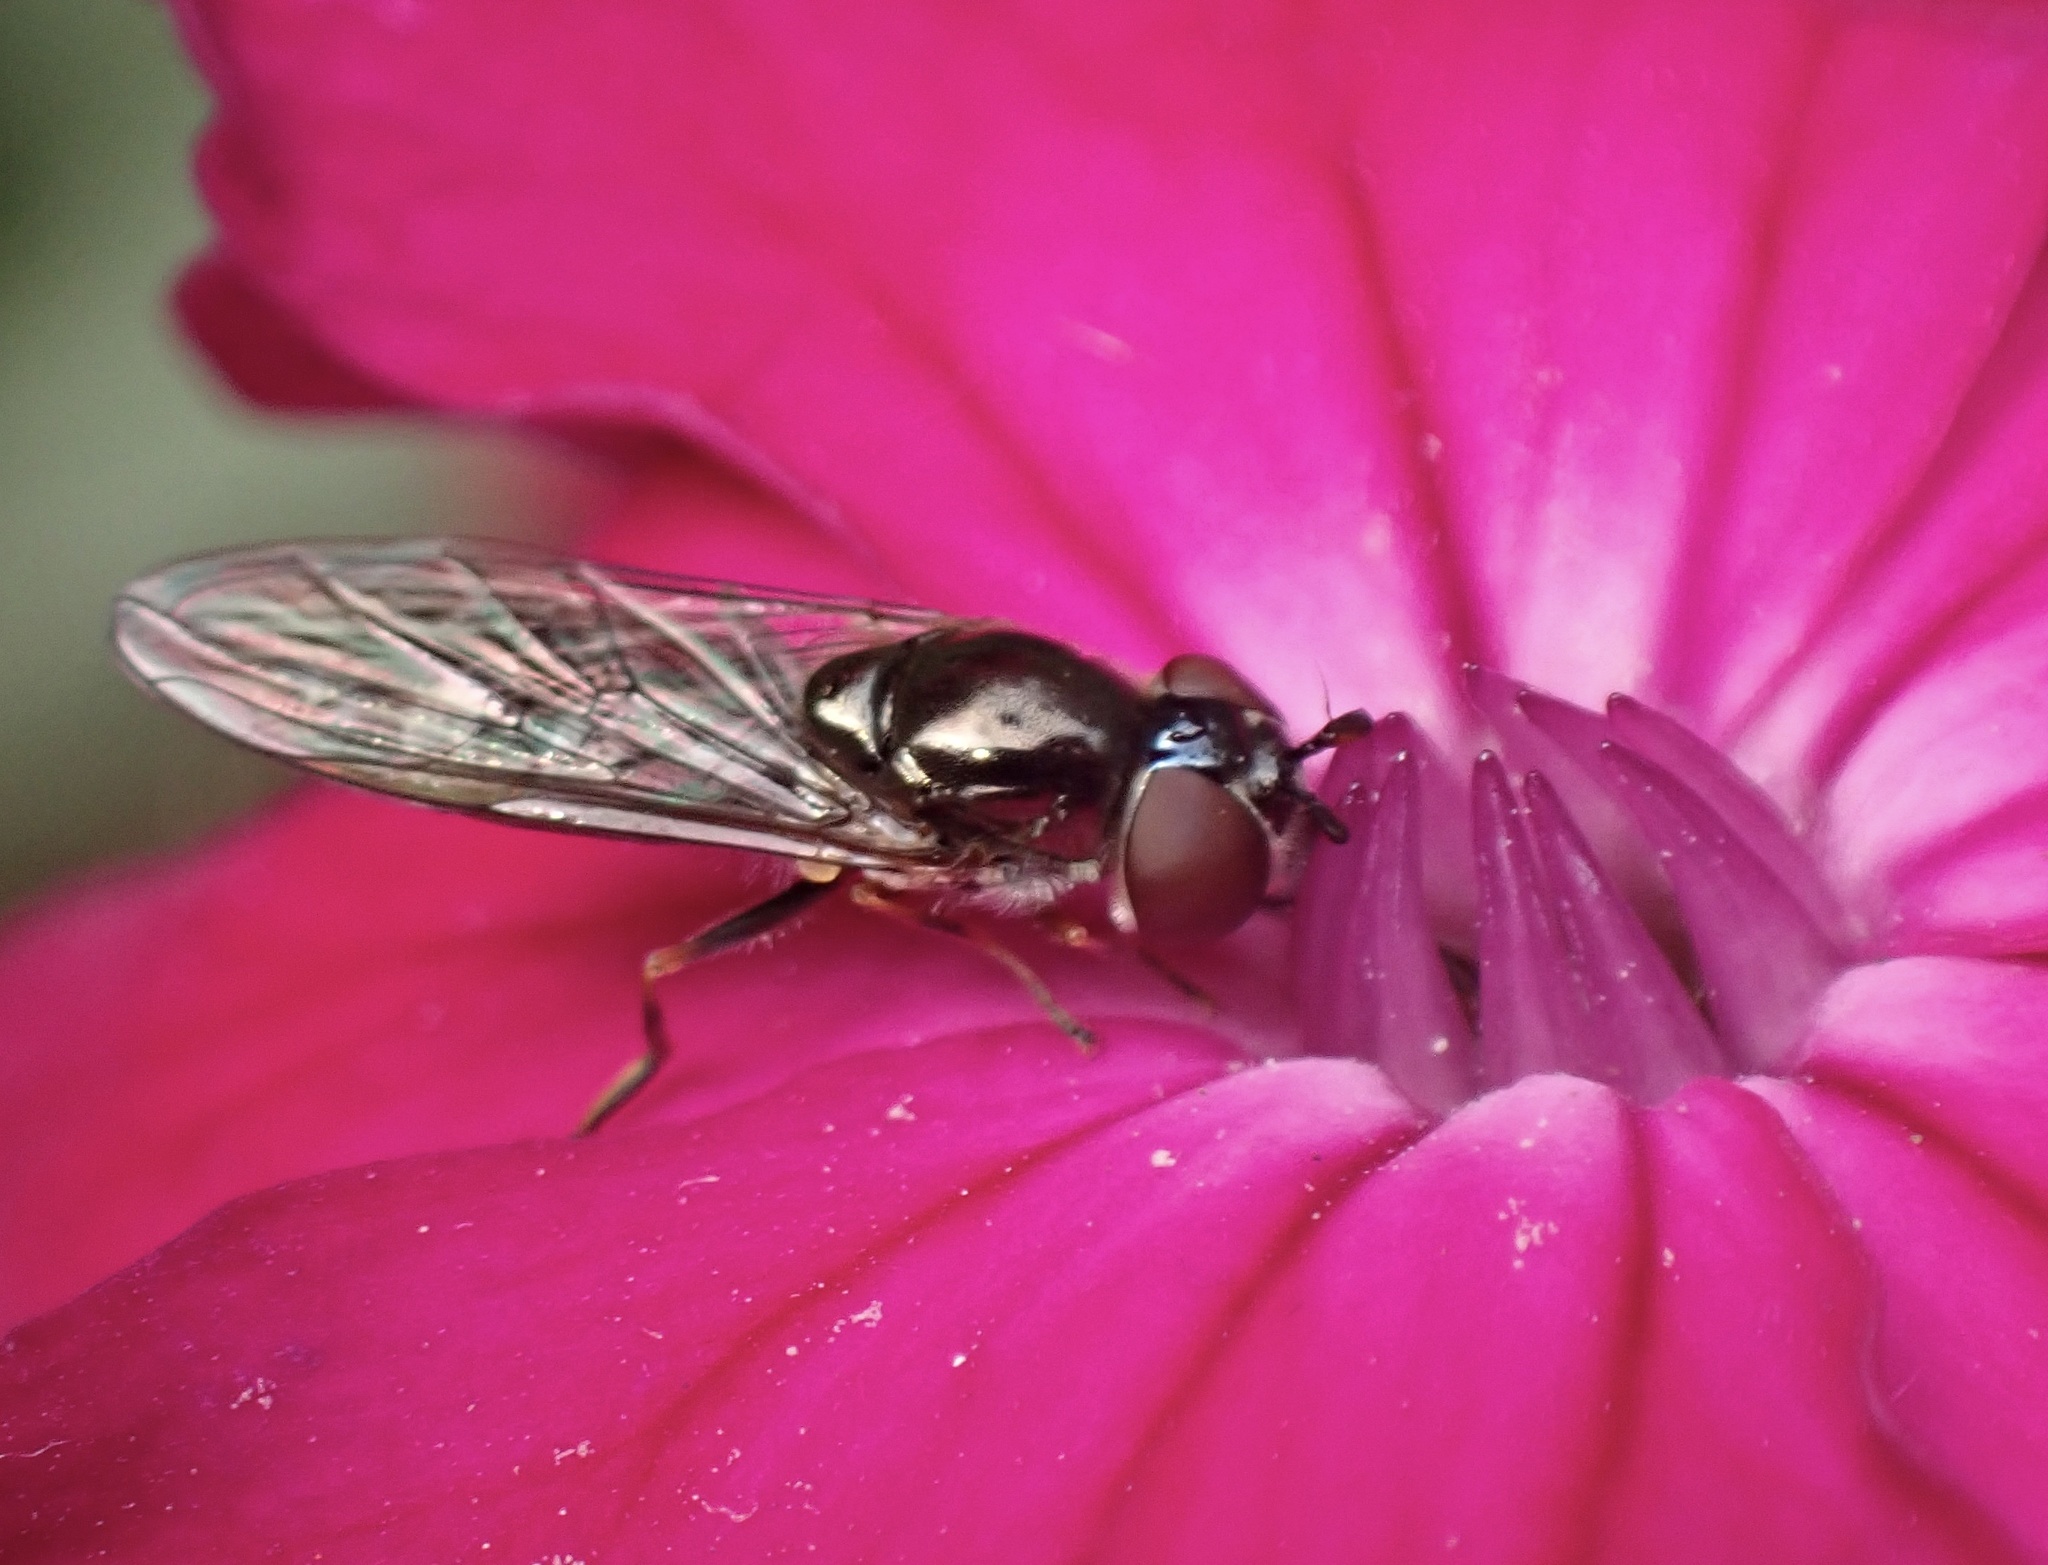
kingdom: Animalia
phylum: Arthropoda
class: Insecta
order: Diptera
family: Syrphidae
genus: Platycheirus
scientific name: Platycheirus albimanus
